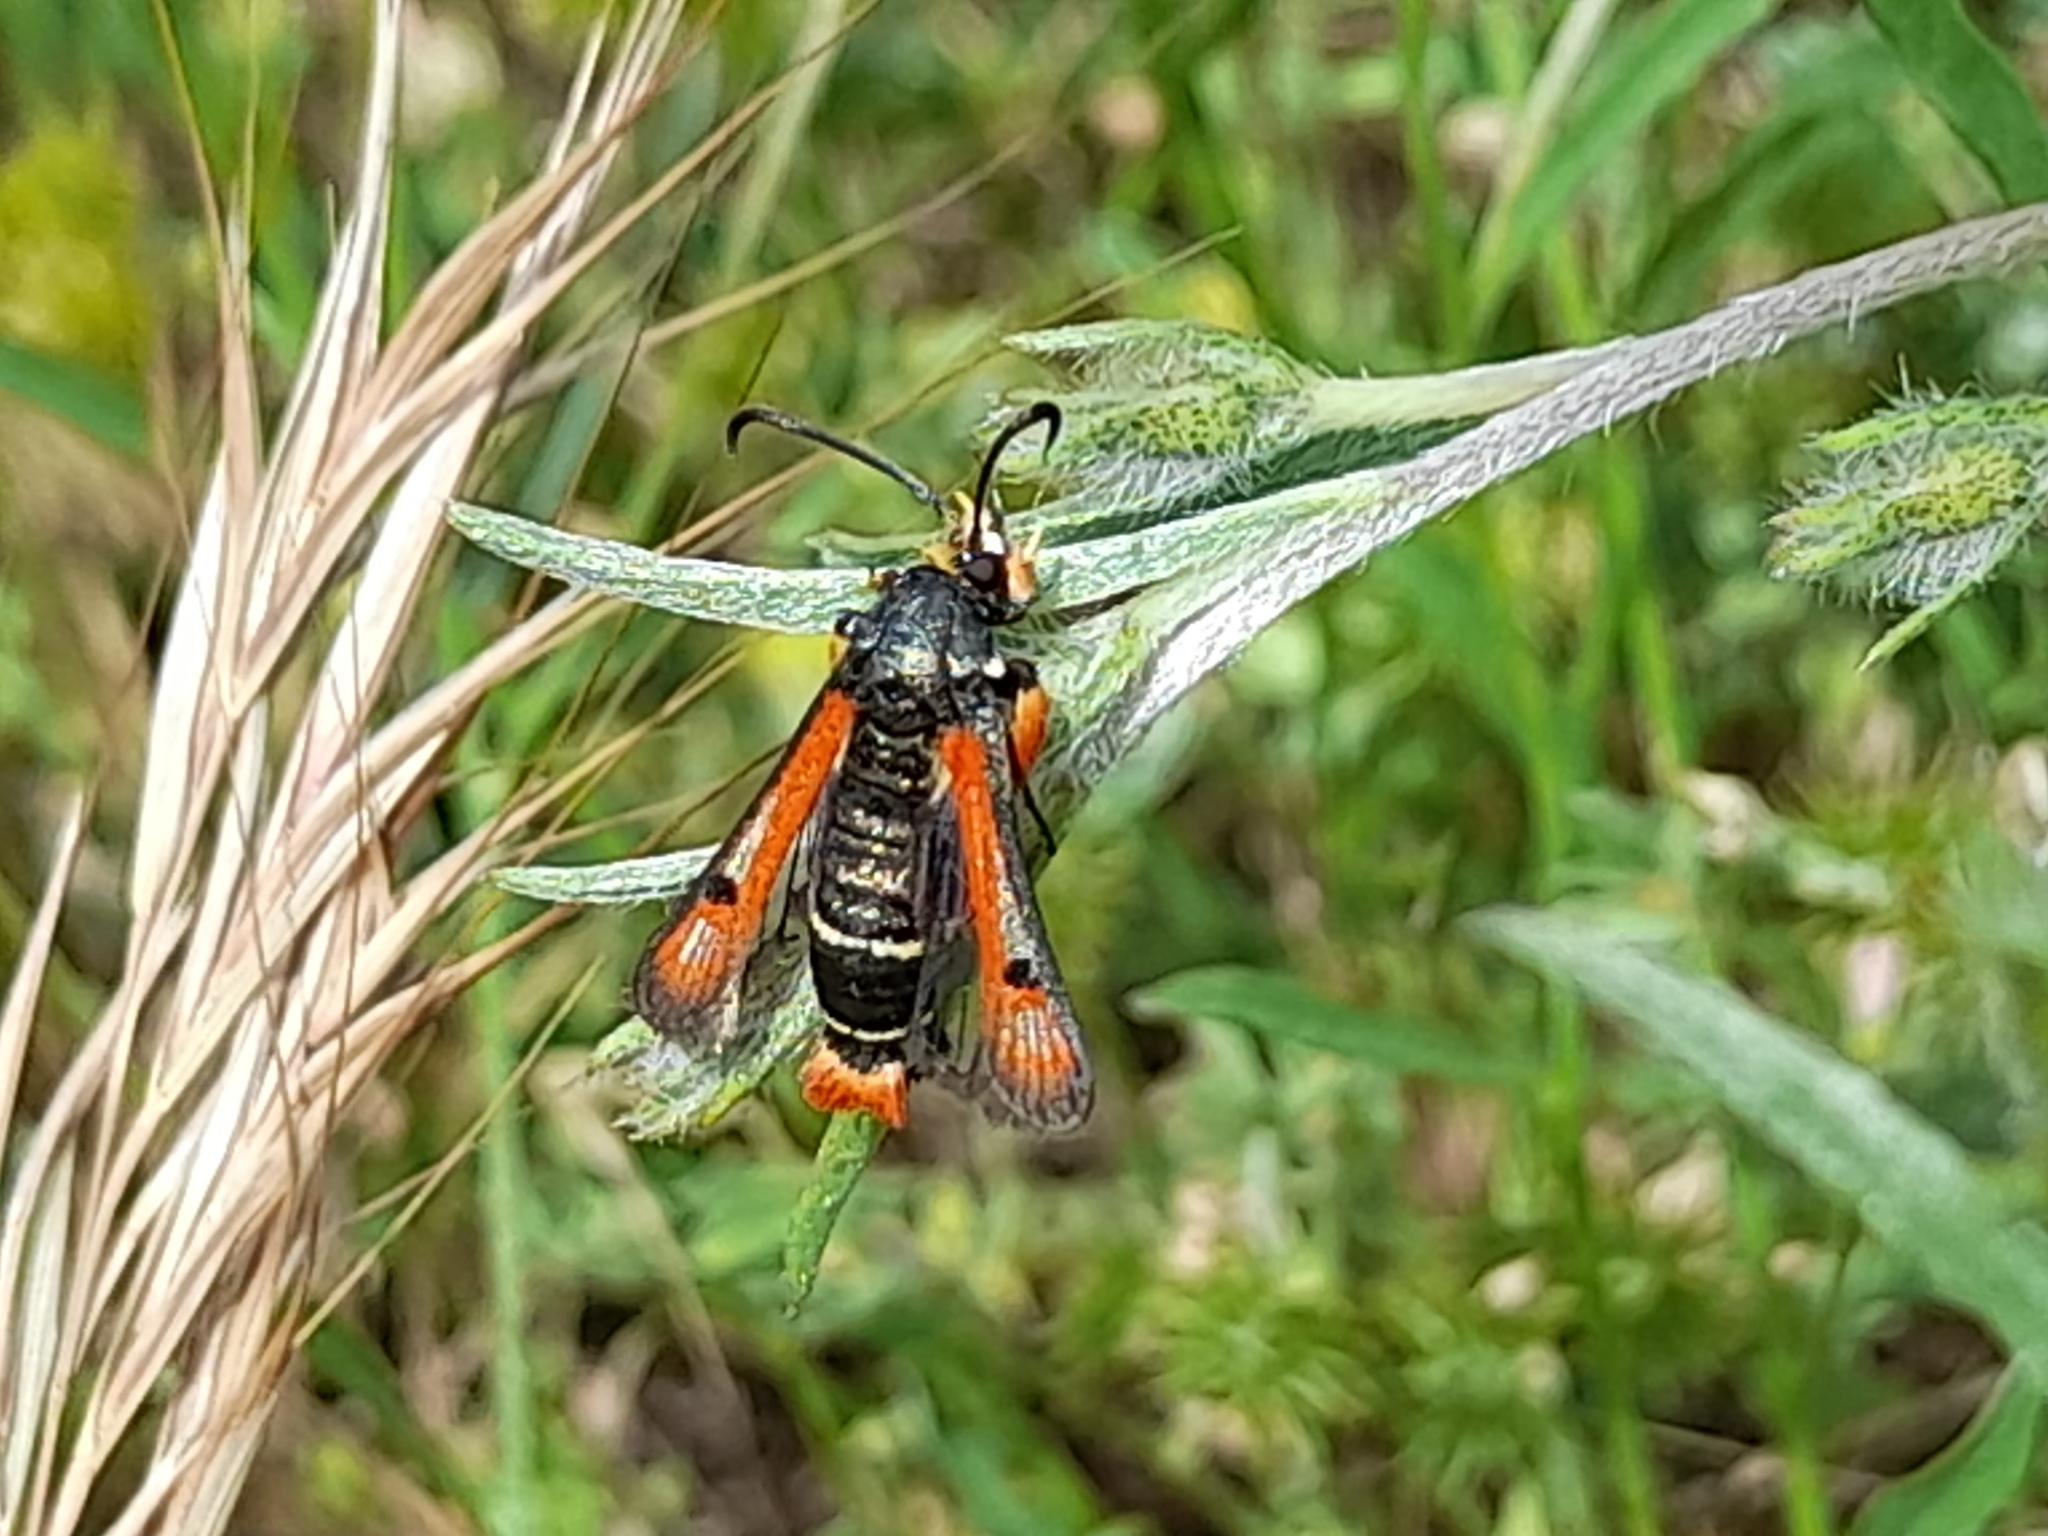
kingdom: Animalia
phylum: Arthropoda
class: Insecta
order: Lepidoptera
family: Sesiidae
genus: Pyropteron
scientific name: Pyropteron chrysidiforme
